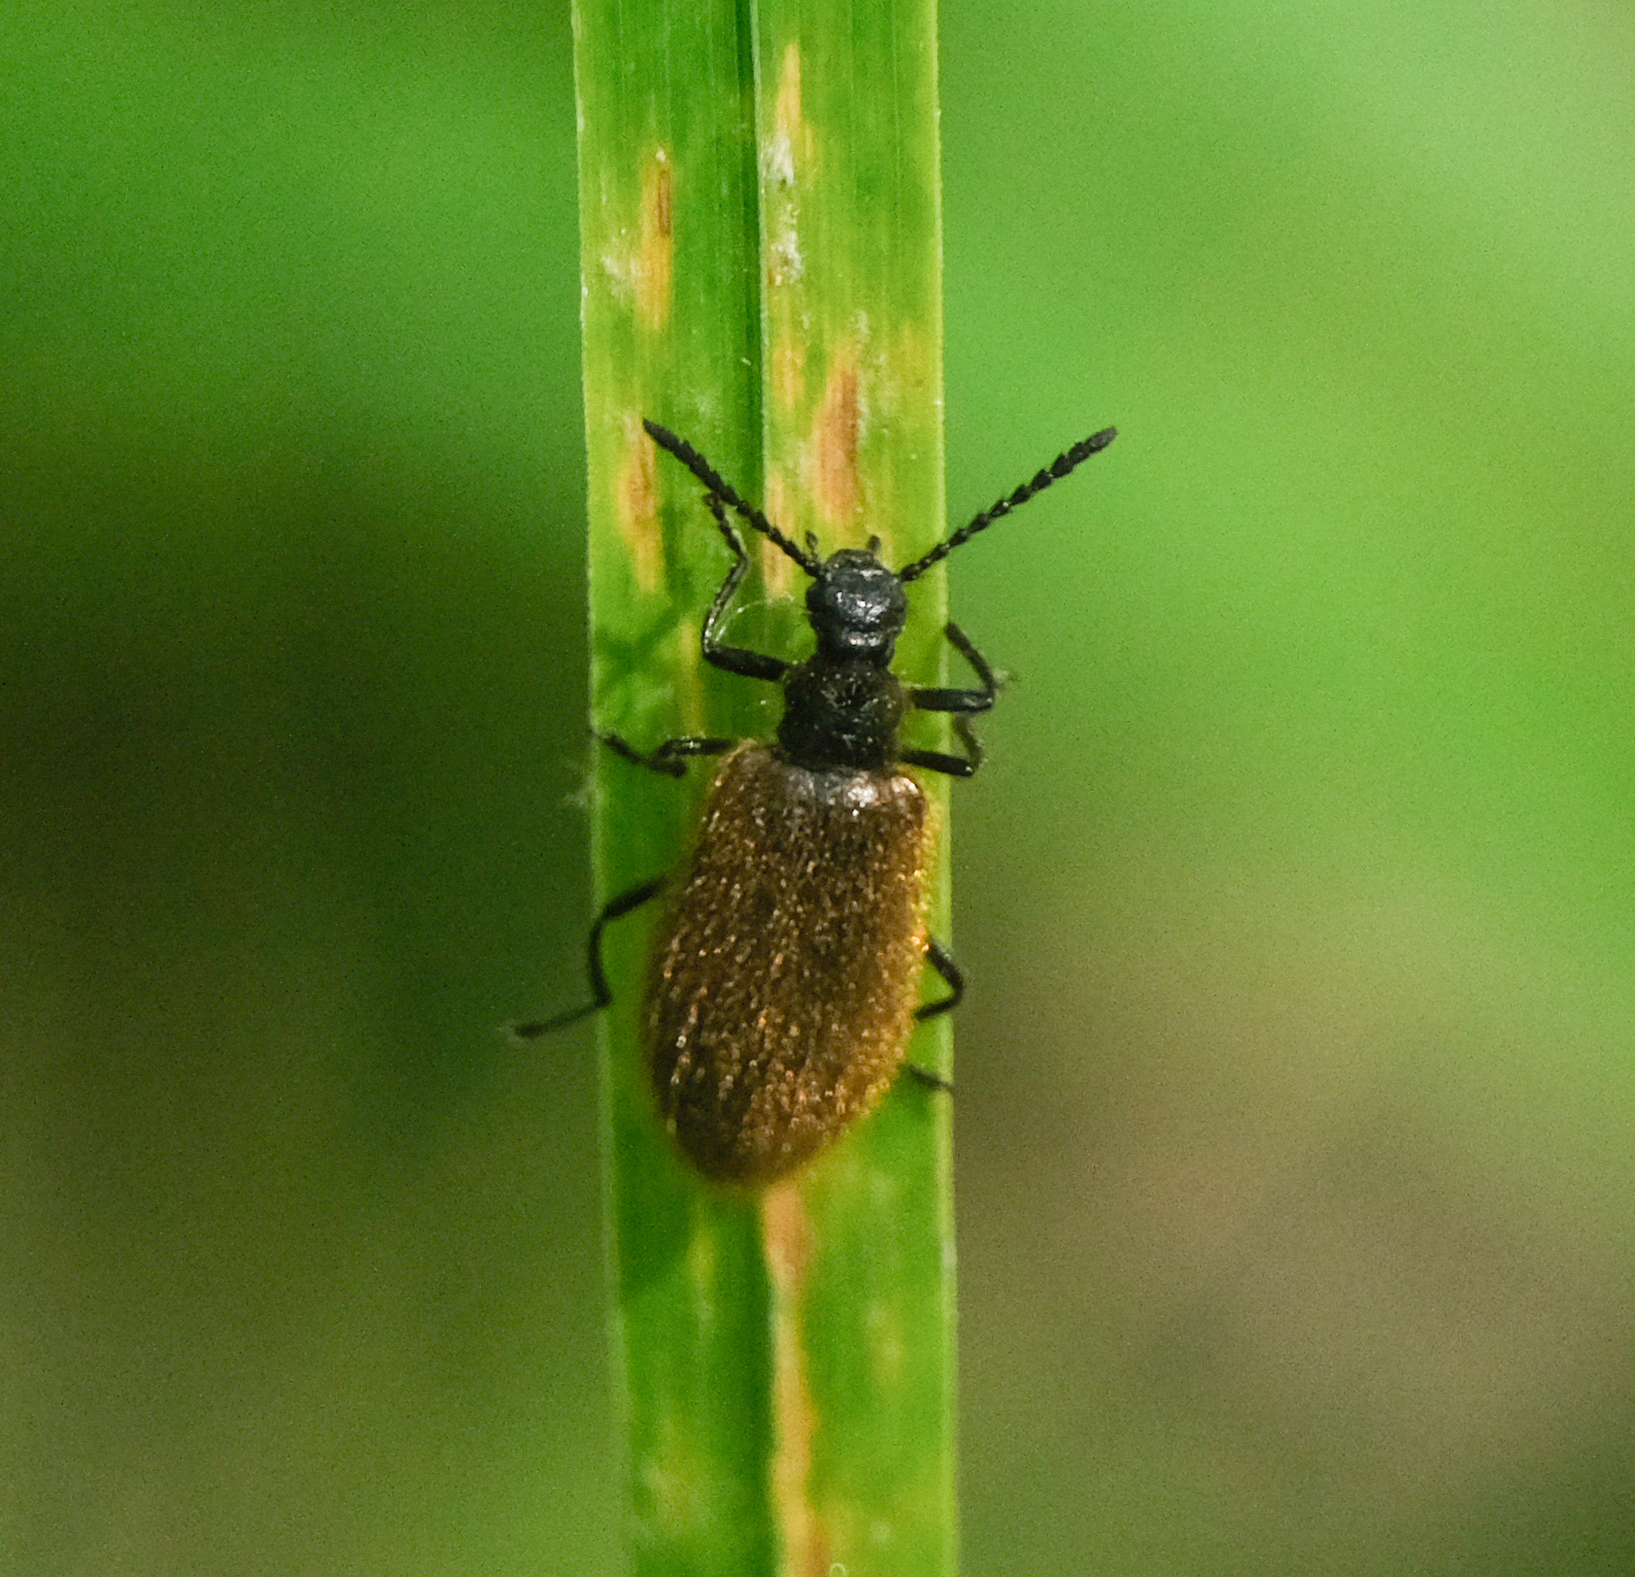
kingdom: Animalia
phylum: Arthropoda
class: Insecta
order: Coleoptera
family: Tenebrionidae
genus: Lagria
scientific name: Lagria hirta
